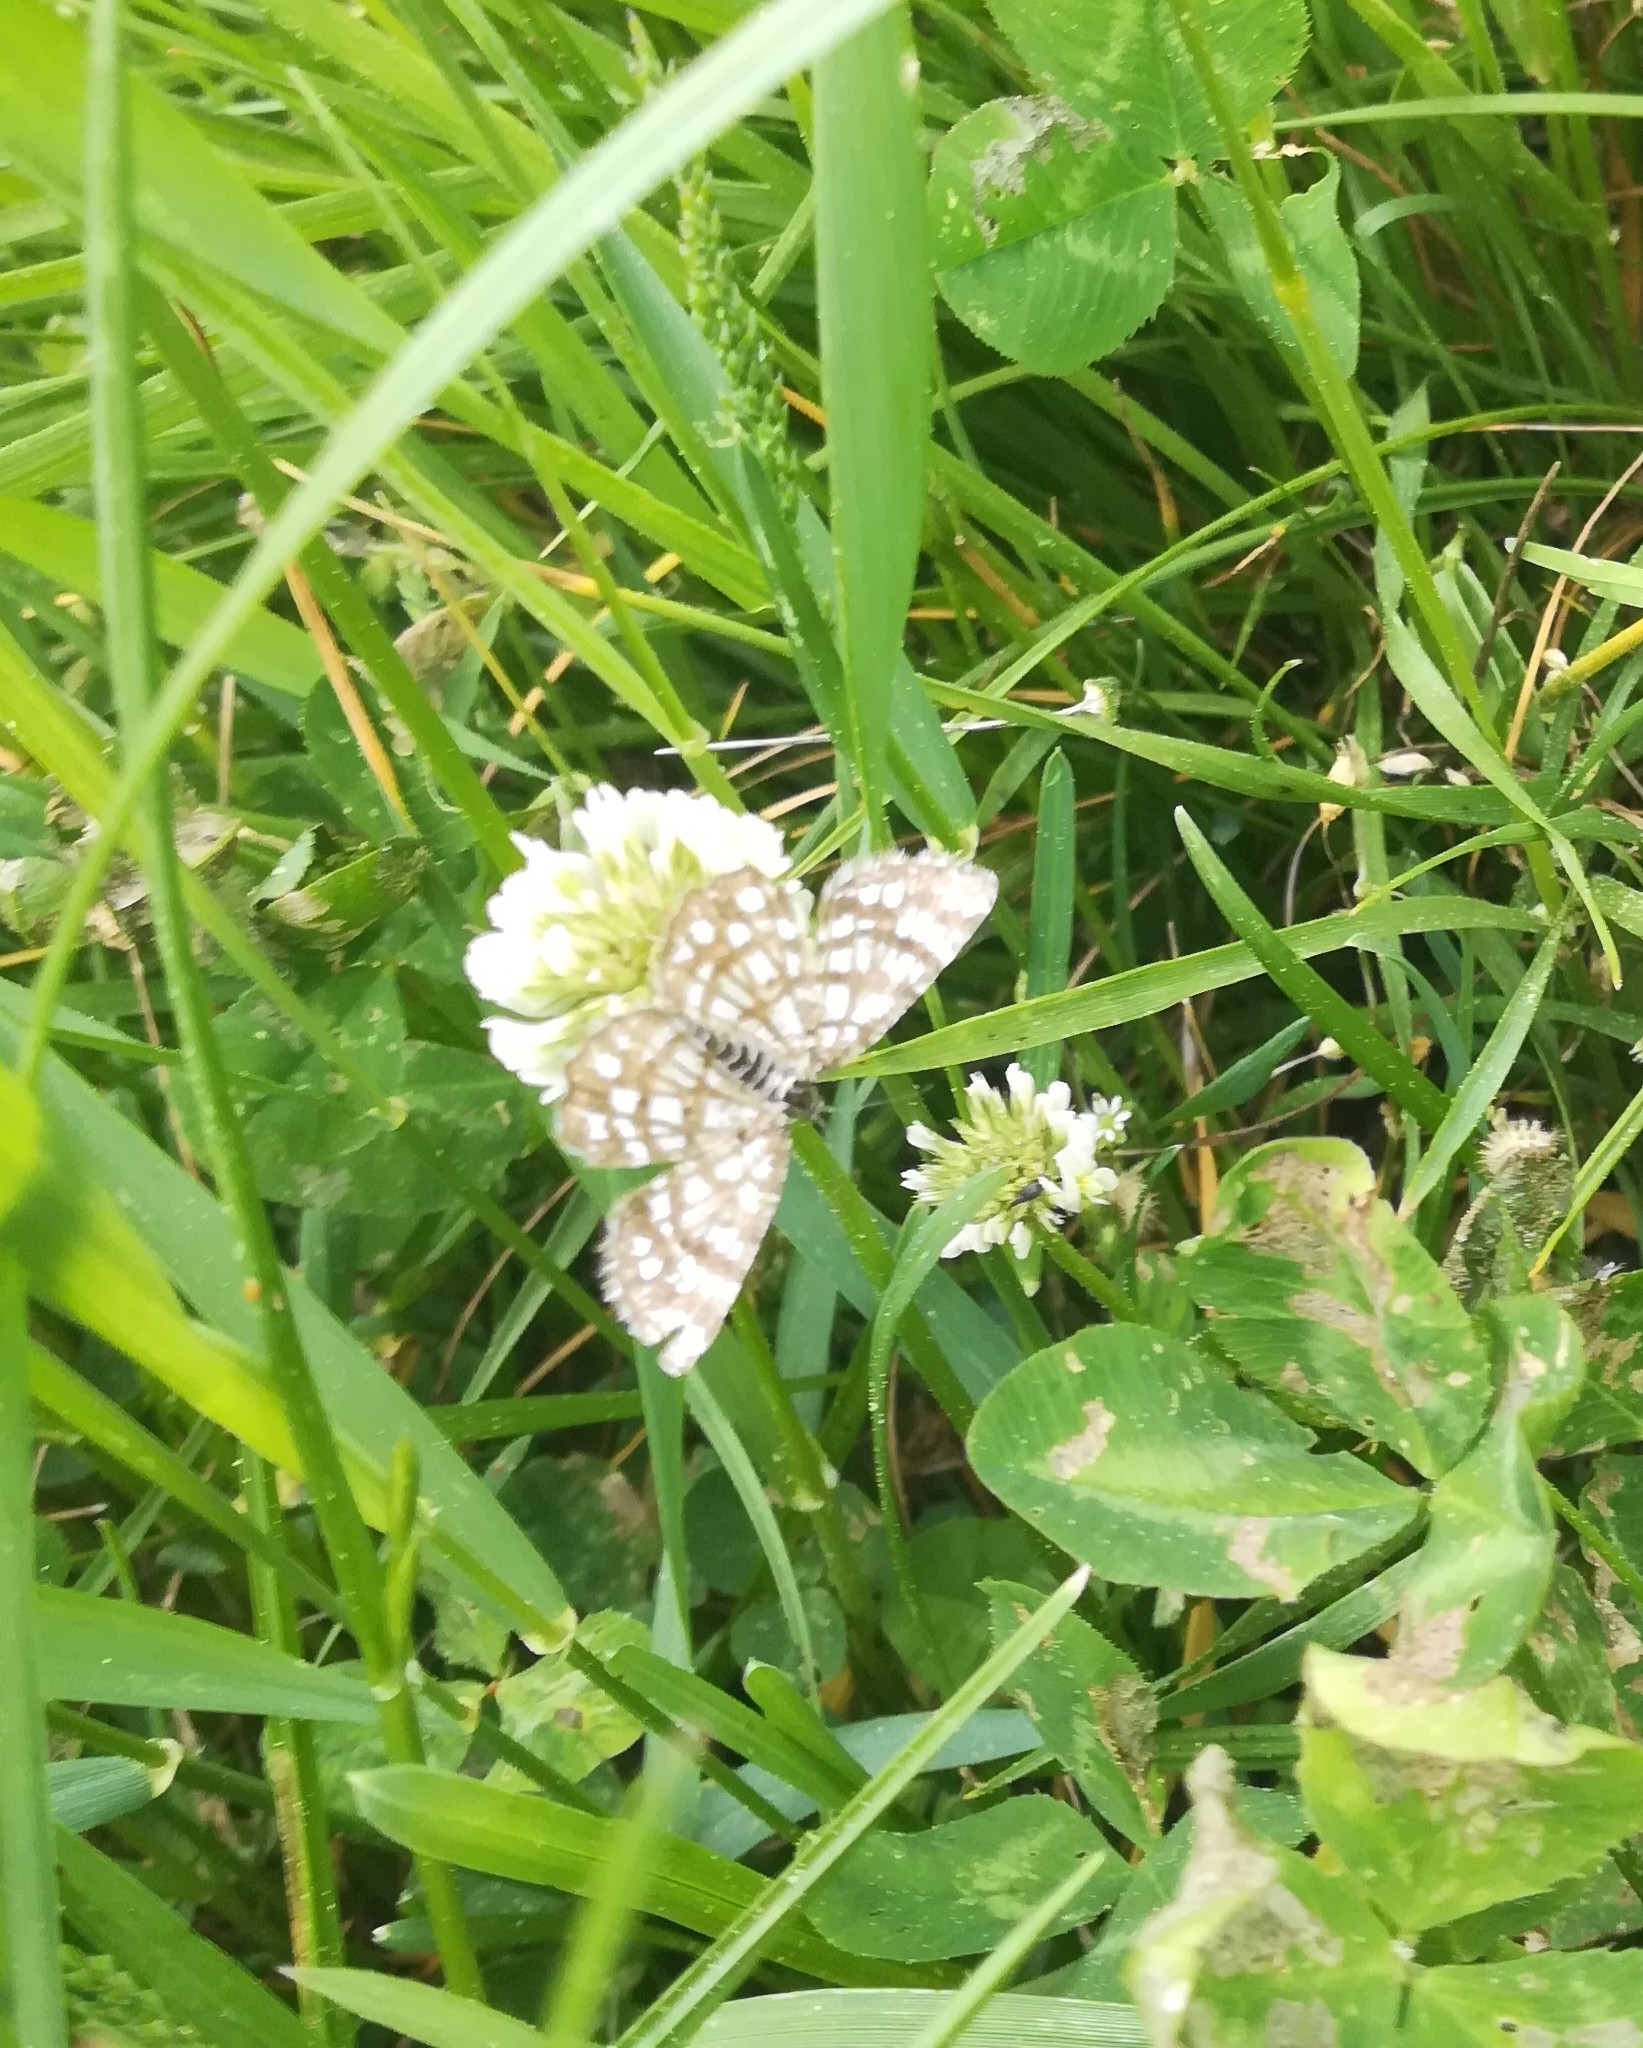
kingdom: Animalia
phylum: Arthropoda
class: Insecta
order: Lepidoptera
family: Geometridae
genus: Chiasmia
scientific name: Chiasmia clathrata
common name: Latticed heath
